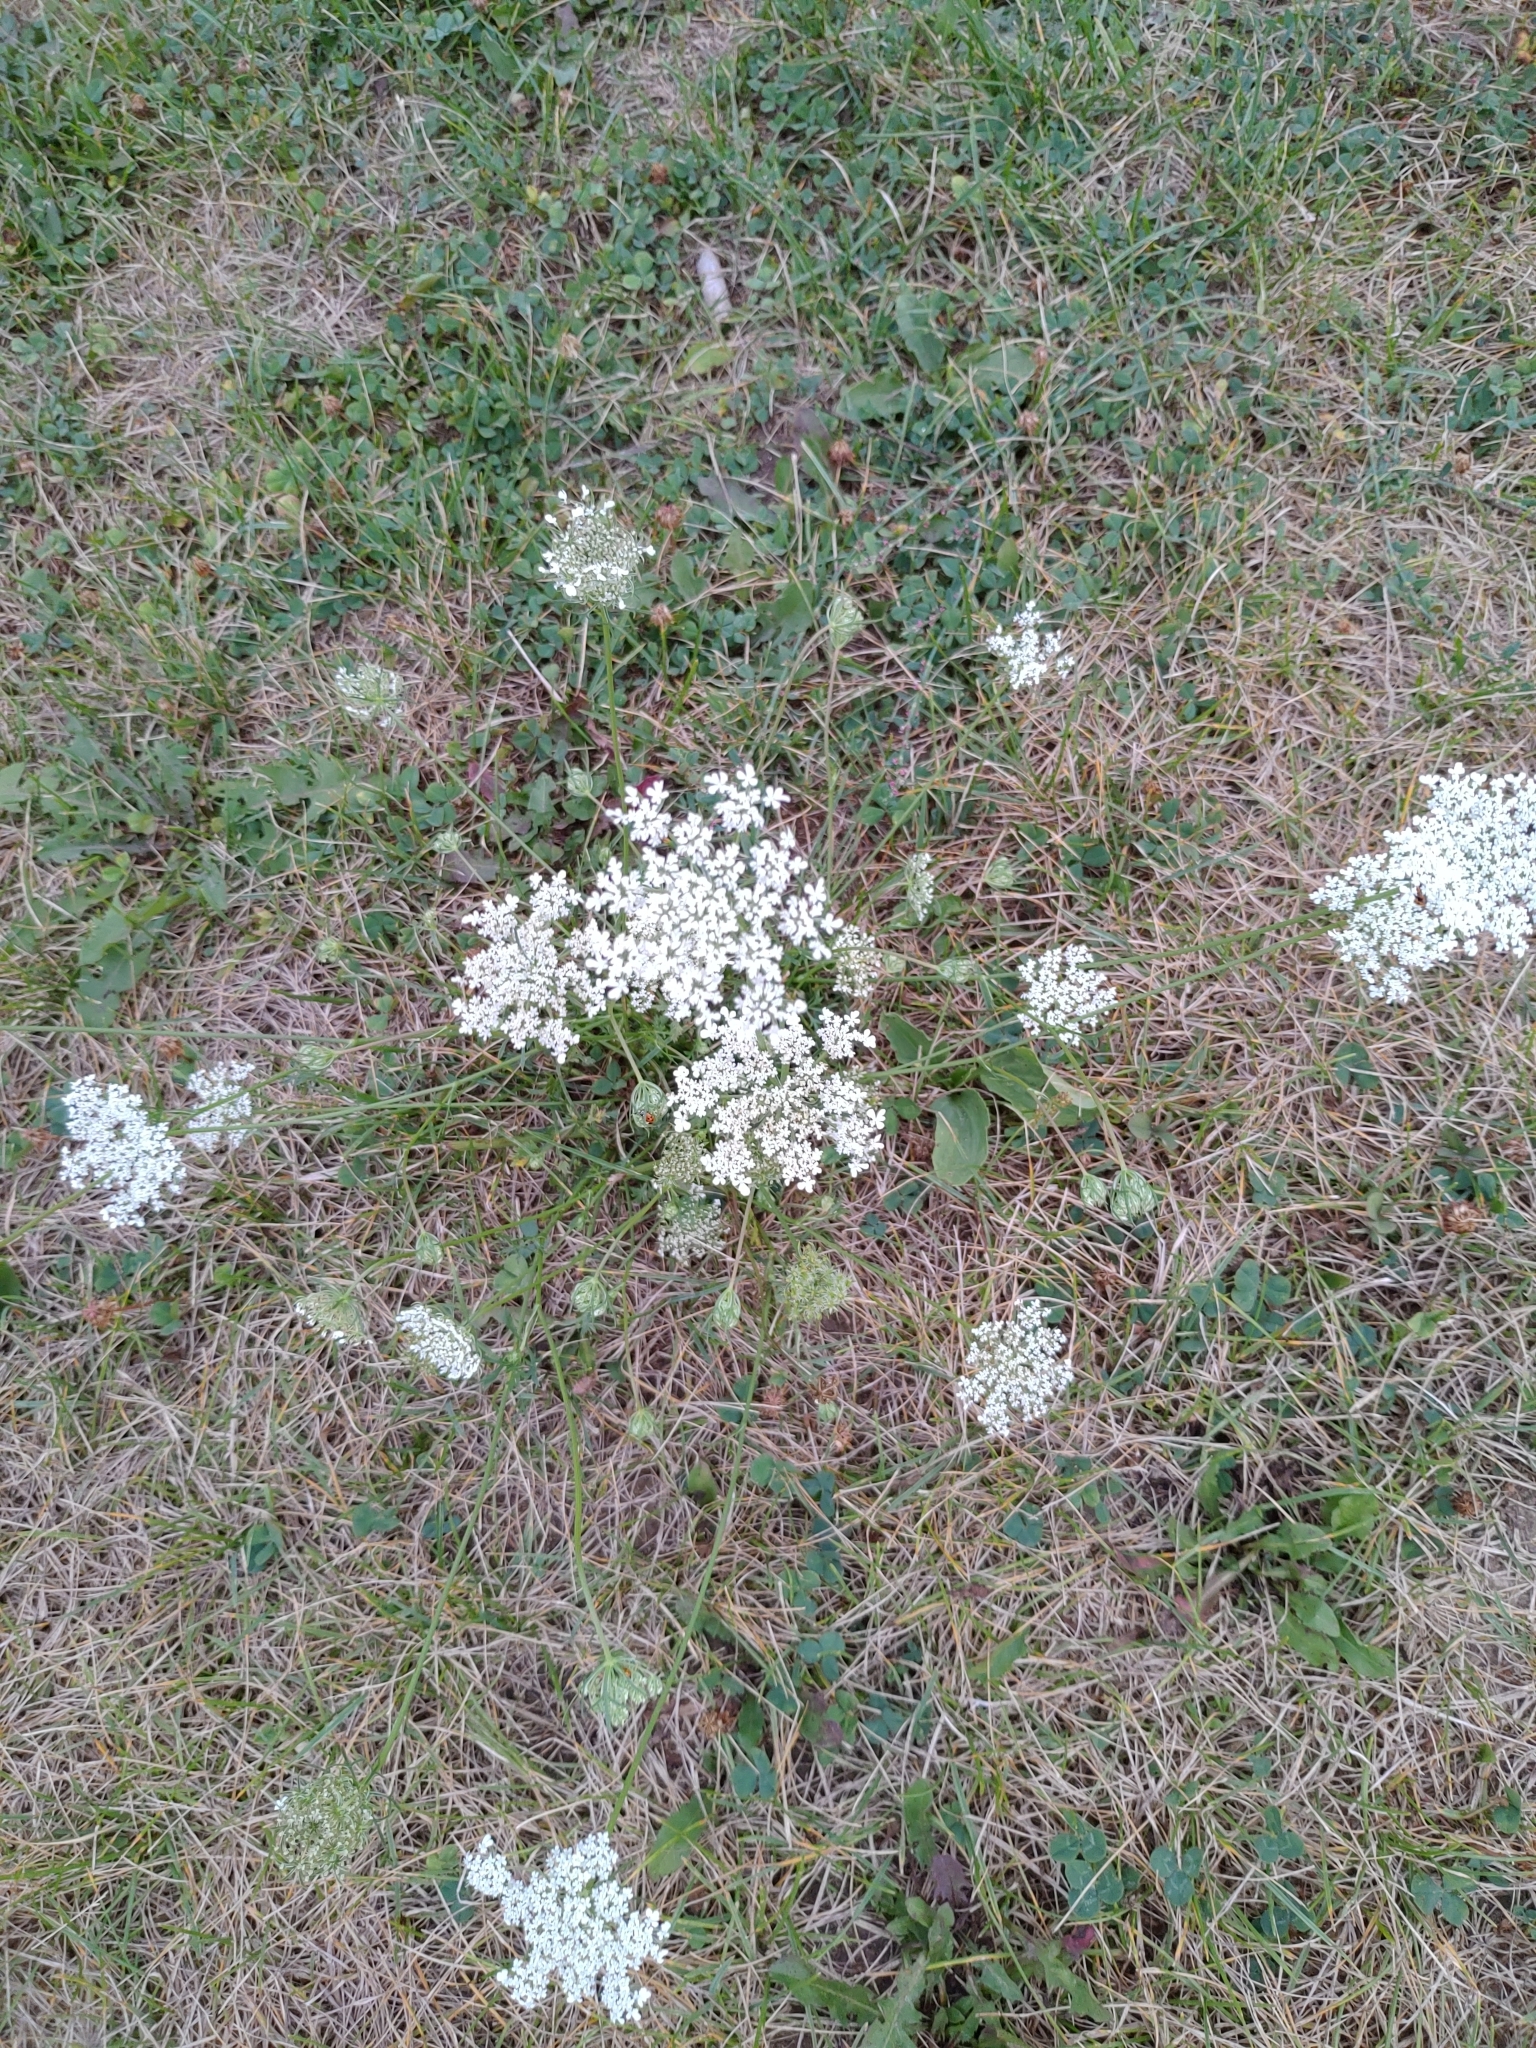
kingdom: Plantae
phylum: Tracheophyta
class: Magnoliopsida
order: Apiales
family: Apiaceae
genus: Daucus
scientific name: Daucus carota
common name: Wild carrot
